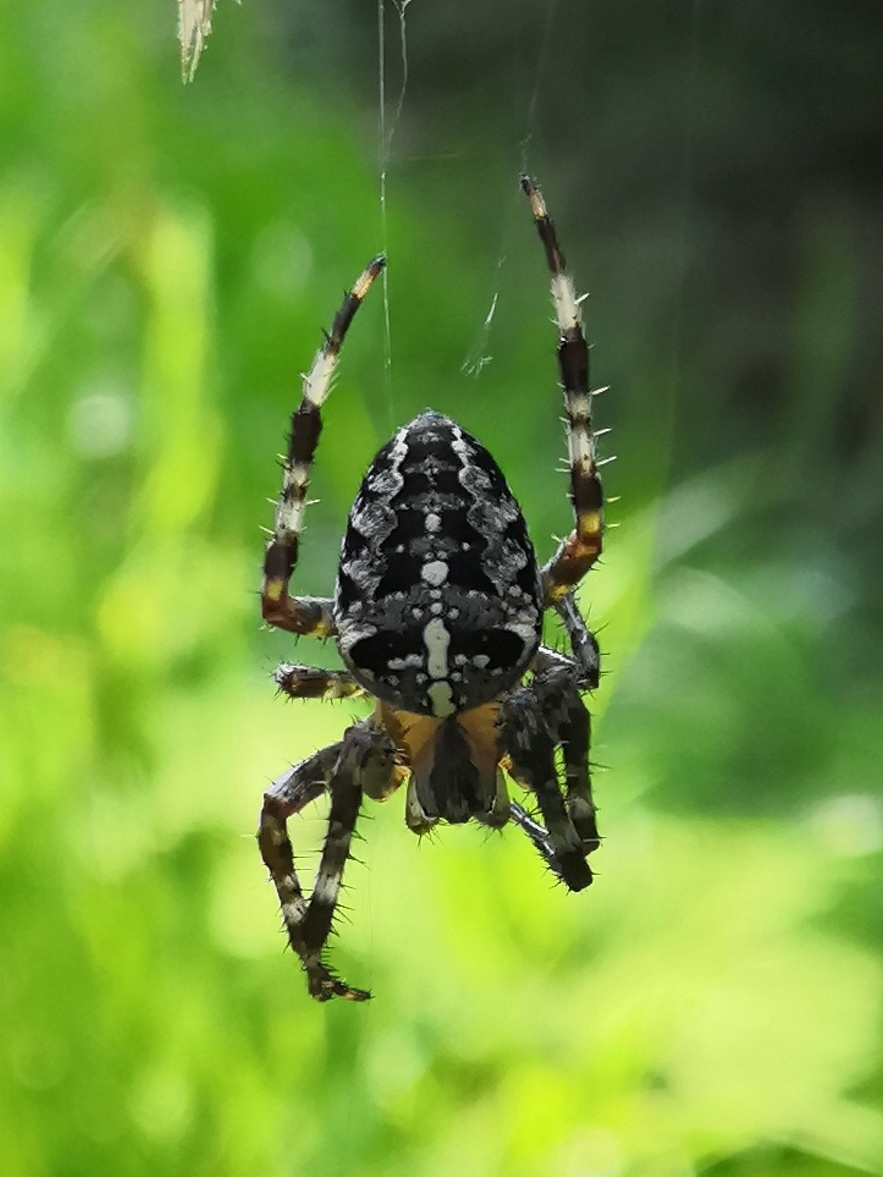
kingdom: Animalia
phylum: Arthropoda
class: Arachnida
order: Araneae
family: Araneidae
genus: Araneus
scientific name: Araneus diadematus
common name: Cross orbweaver
